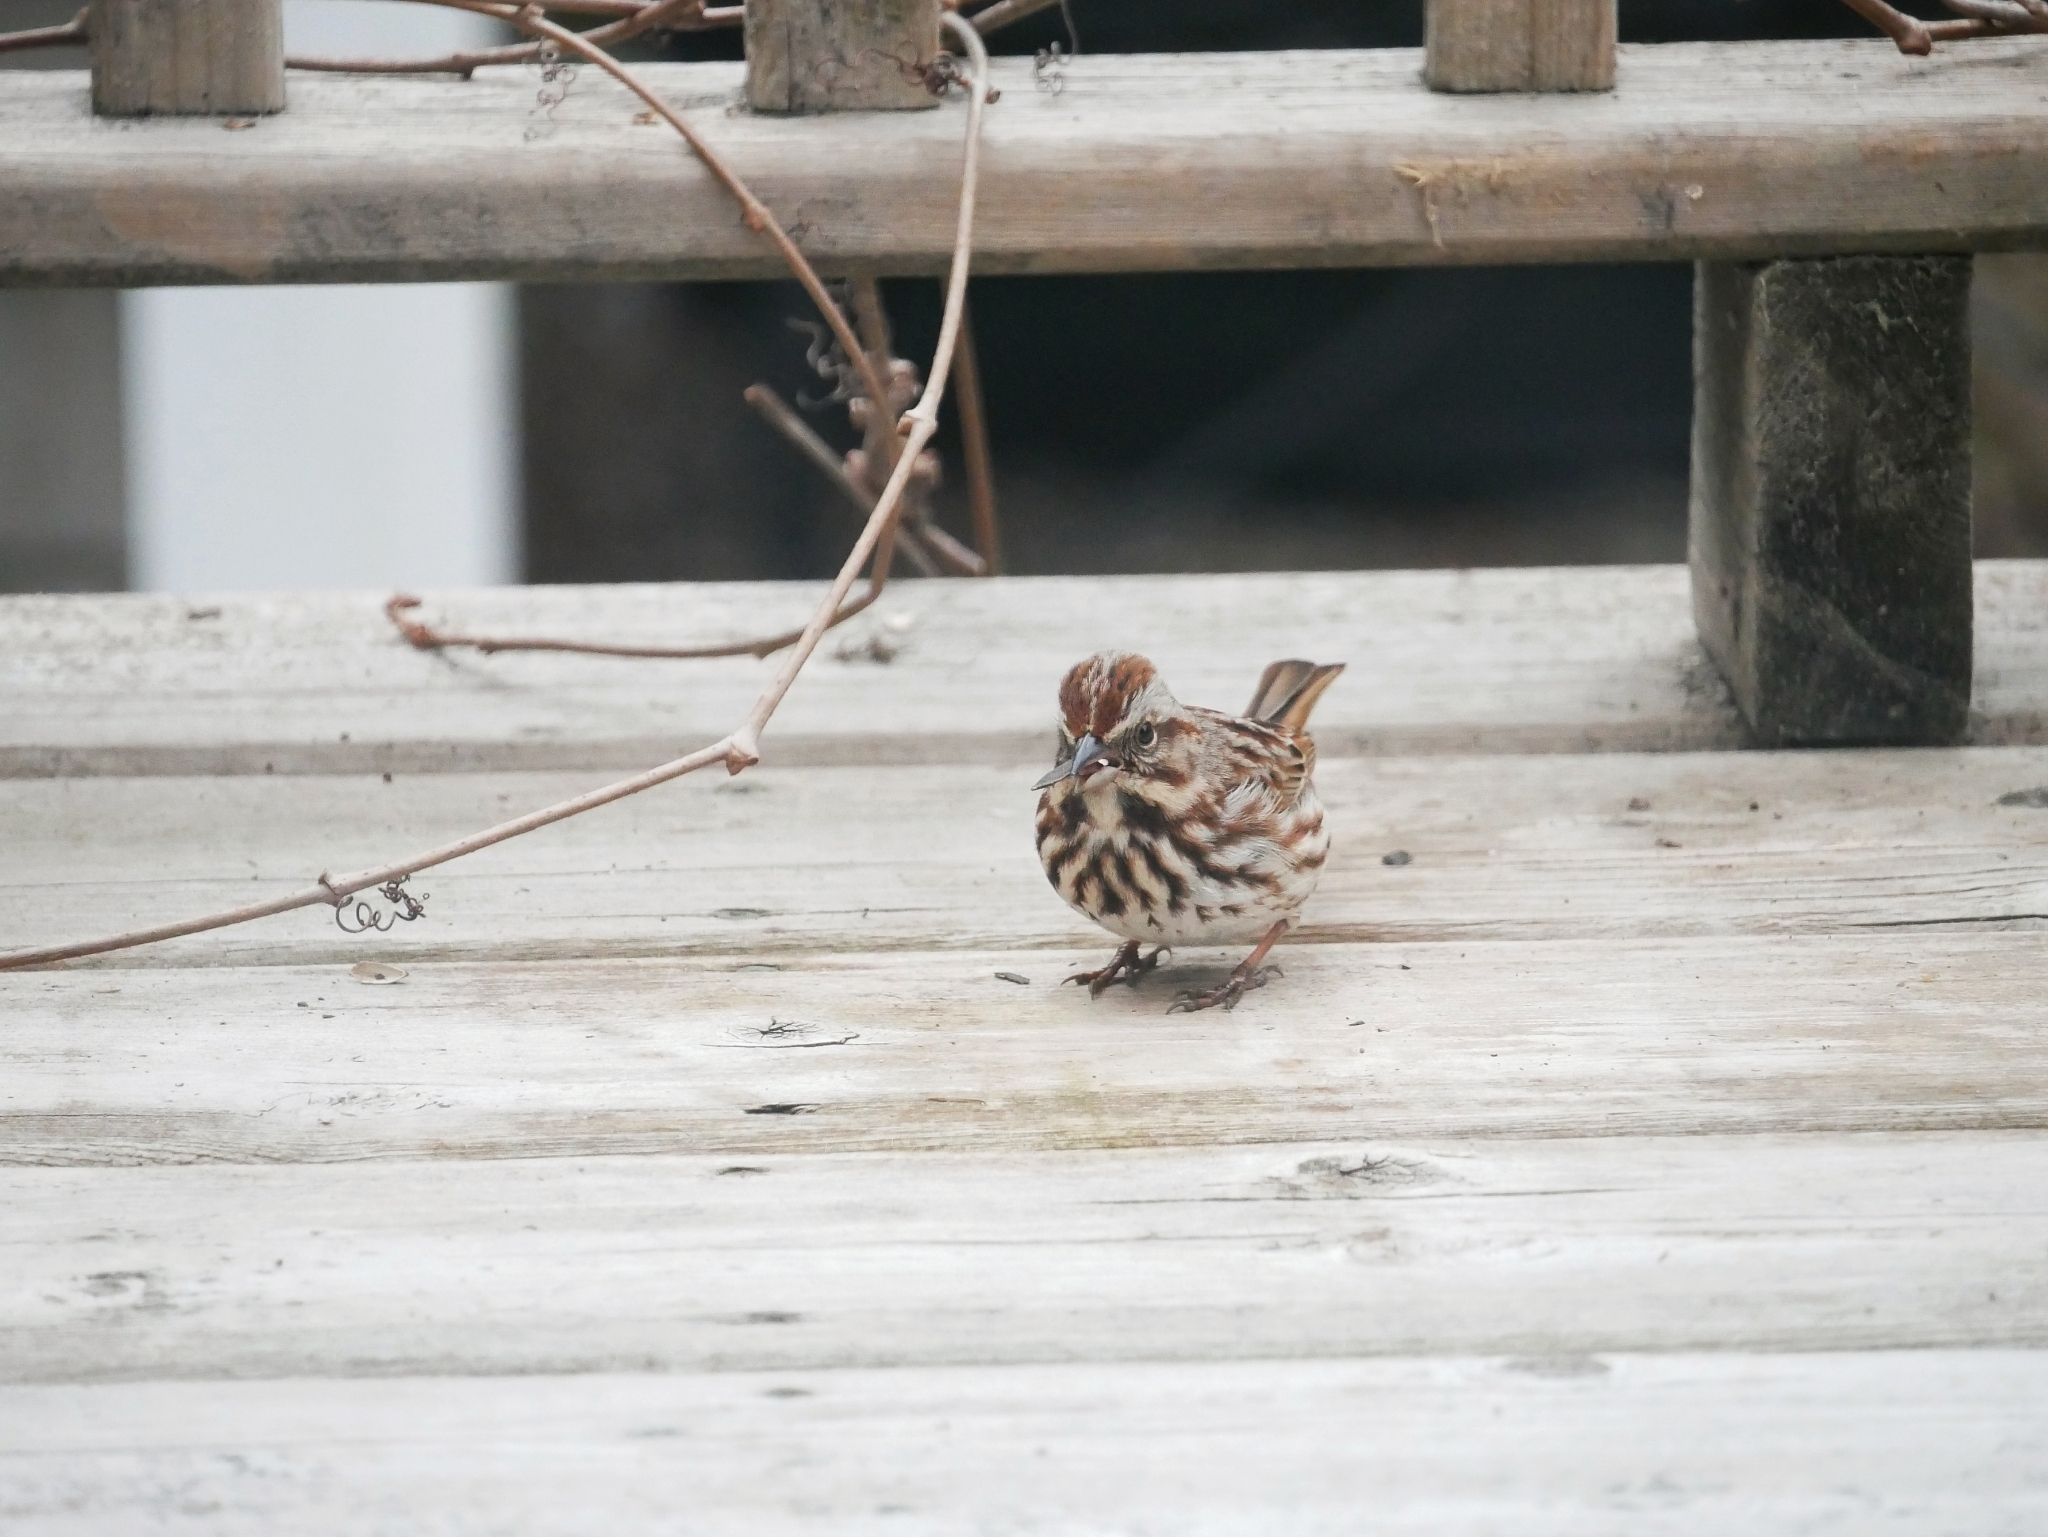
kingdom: Animalia
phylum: Chordata
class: Aves
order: Passeriformes
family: Passerellidae
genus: Melospiza
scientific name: Melospiza melodia
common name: Song sparrow
